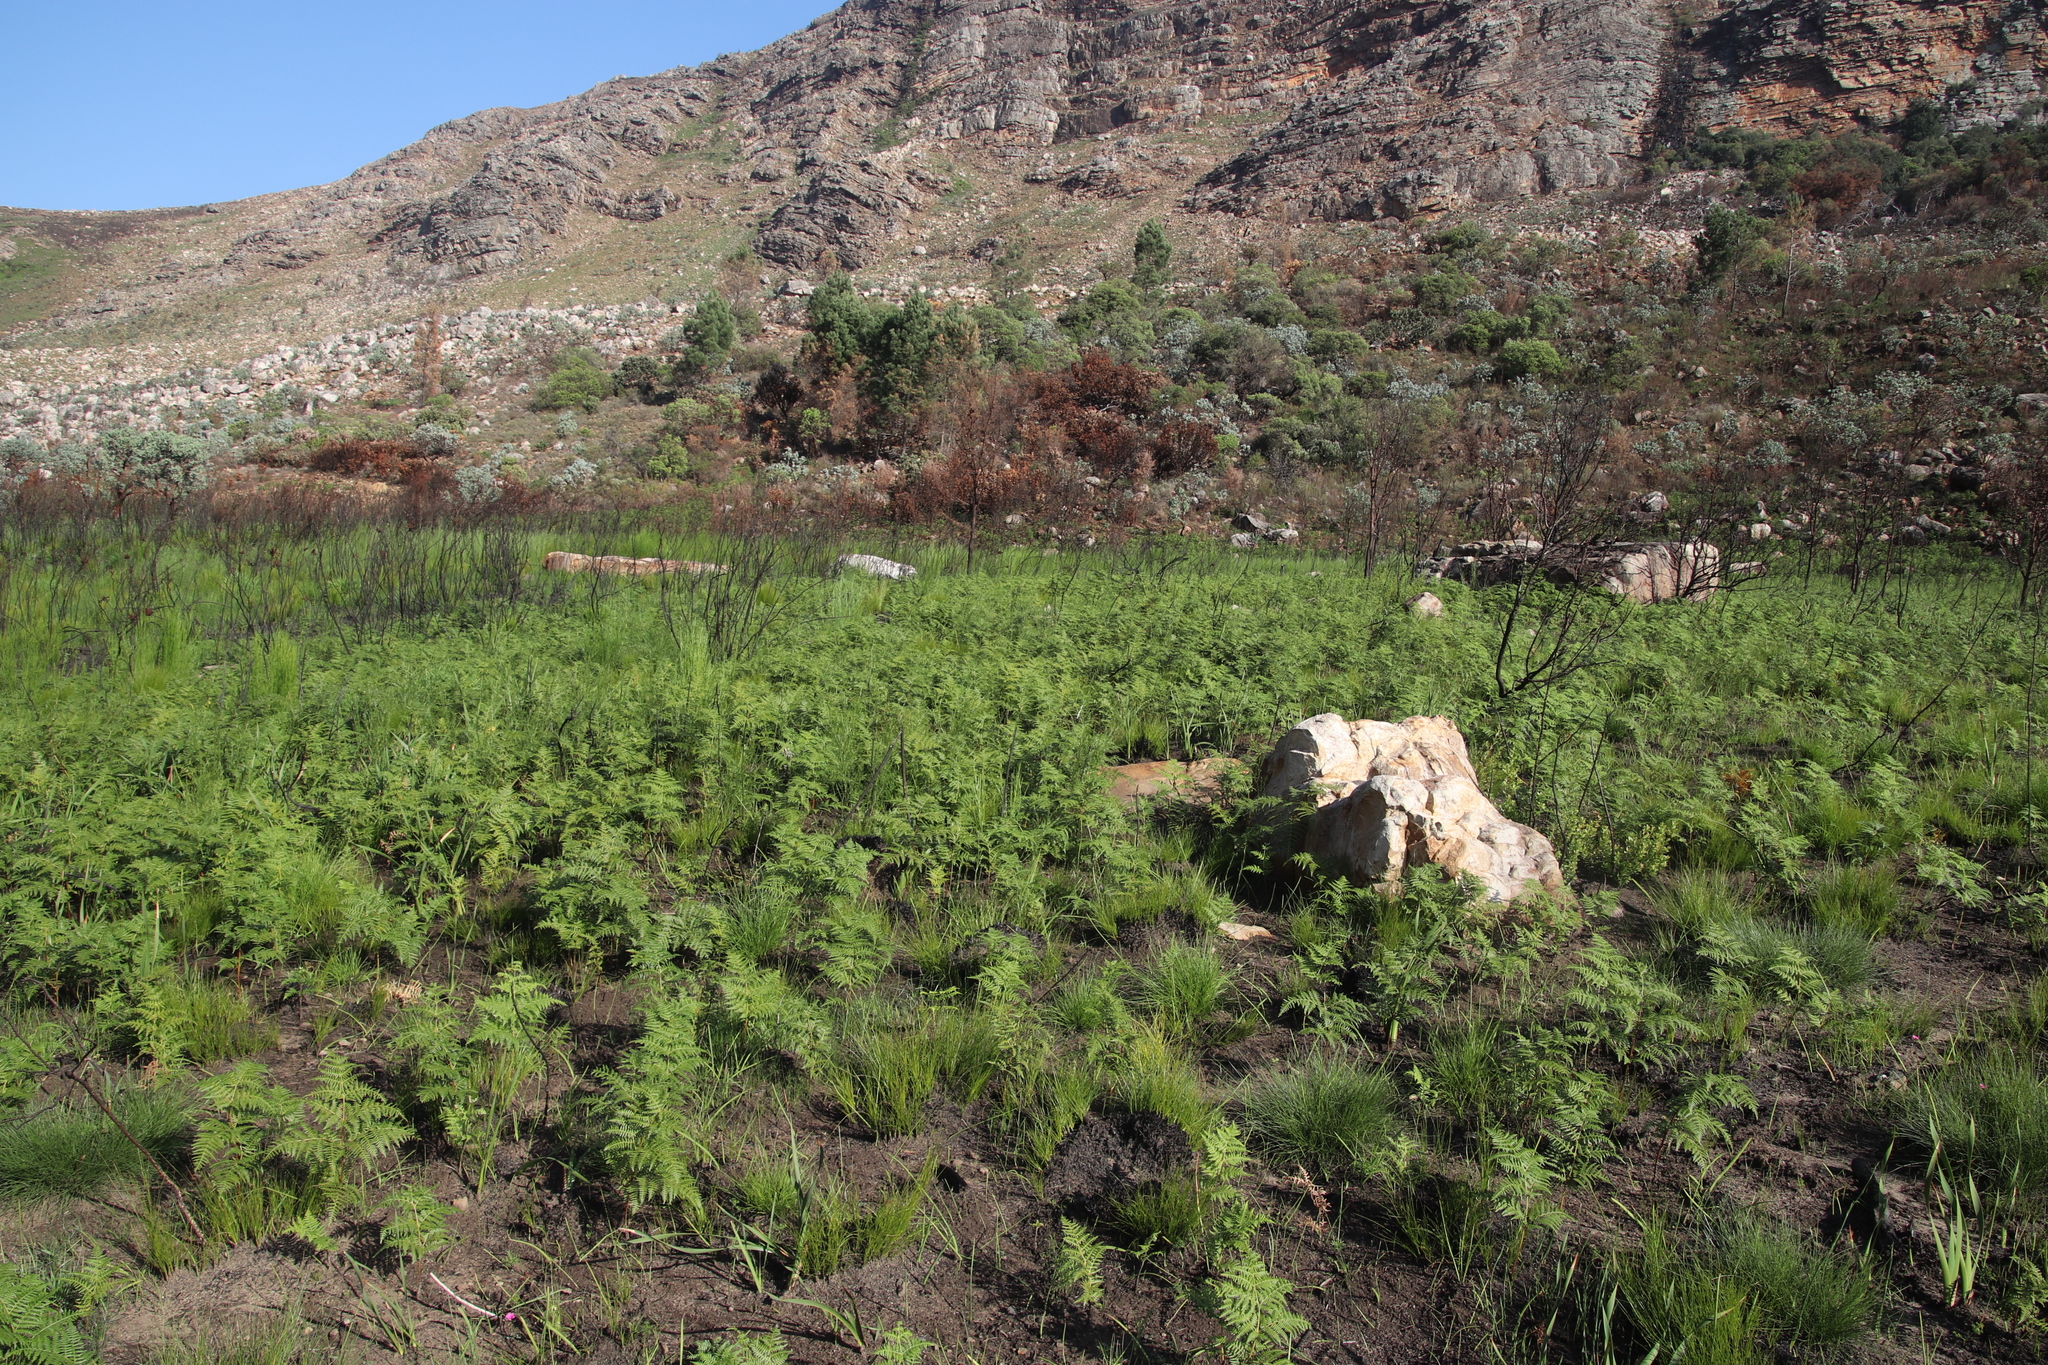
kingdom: Plantae
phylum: Tracheophyta
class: Polypodiopsida
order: Polypodiales
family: Dennstaedtiaceae
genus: Pteridium
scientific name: Pteridium aquilinum
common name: Bracken
